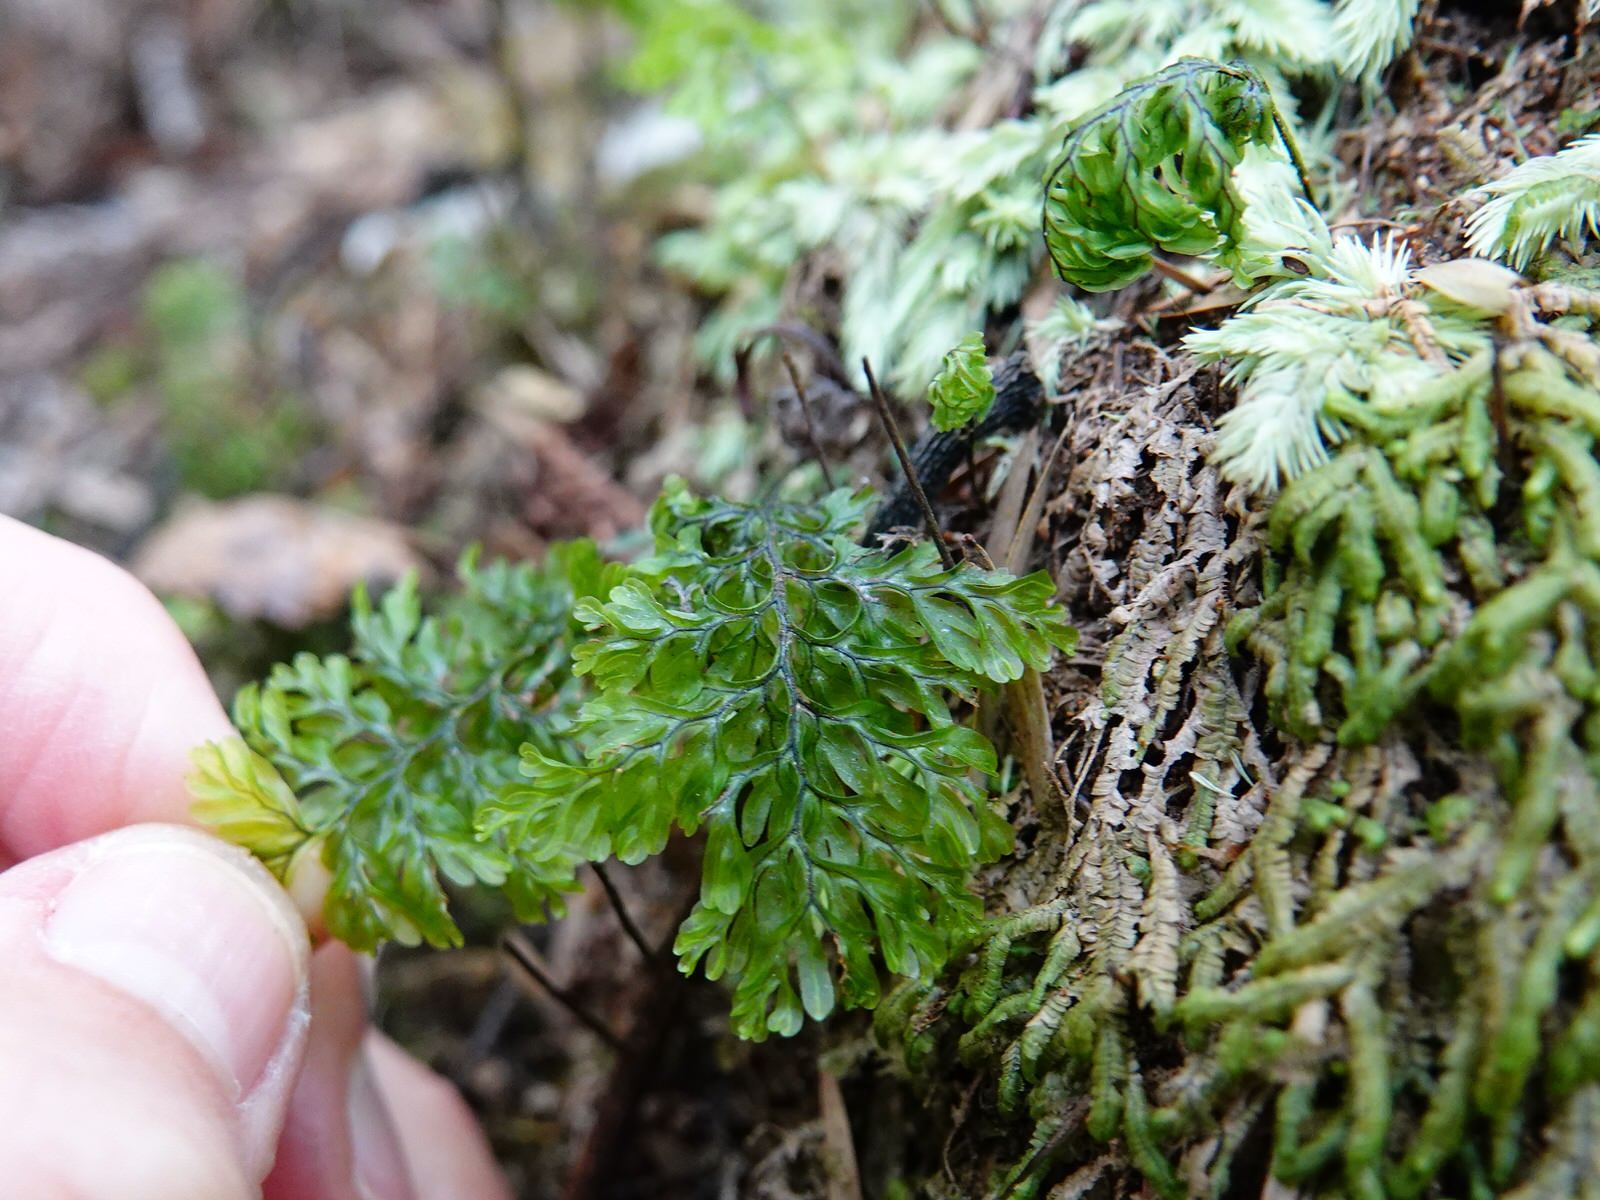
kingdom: Plantae
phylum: Tracheophyta
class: Polypodiopsida
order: Hymenophyllales
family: Hymenophyllaceae
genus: Hymenophyllum
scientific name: Hymenophyllum sanguinolentum
